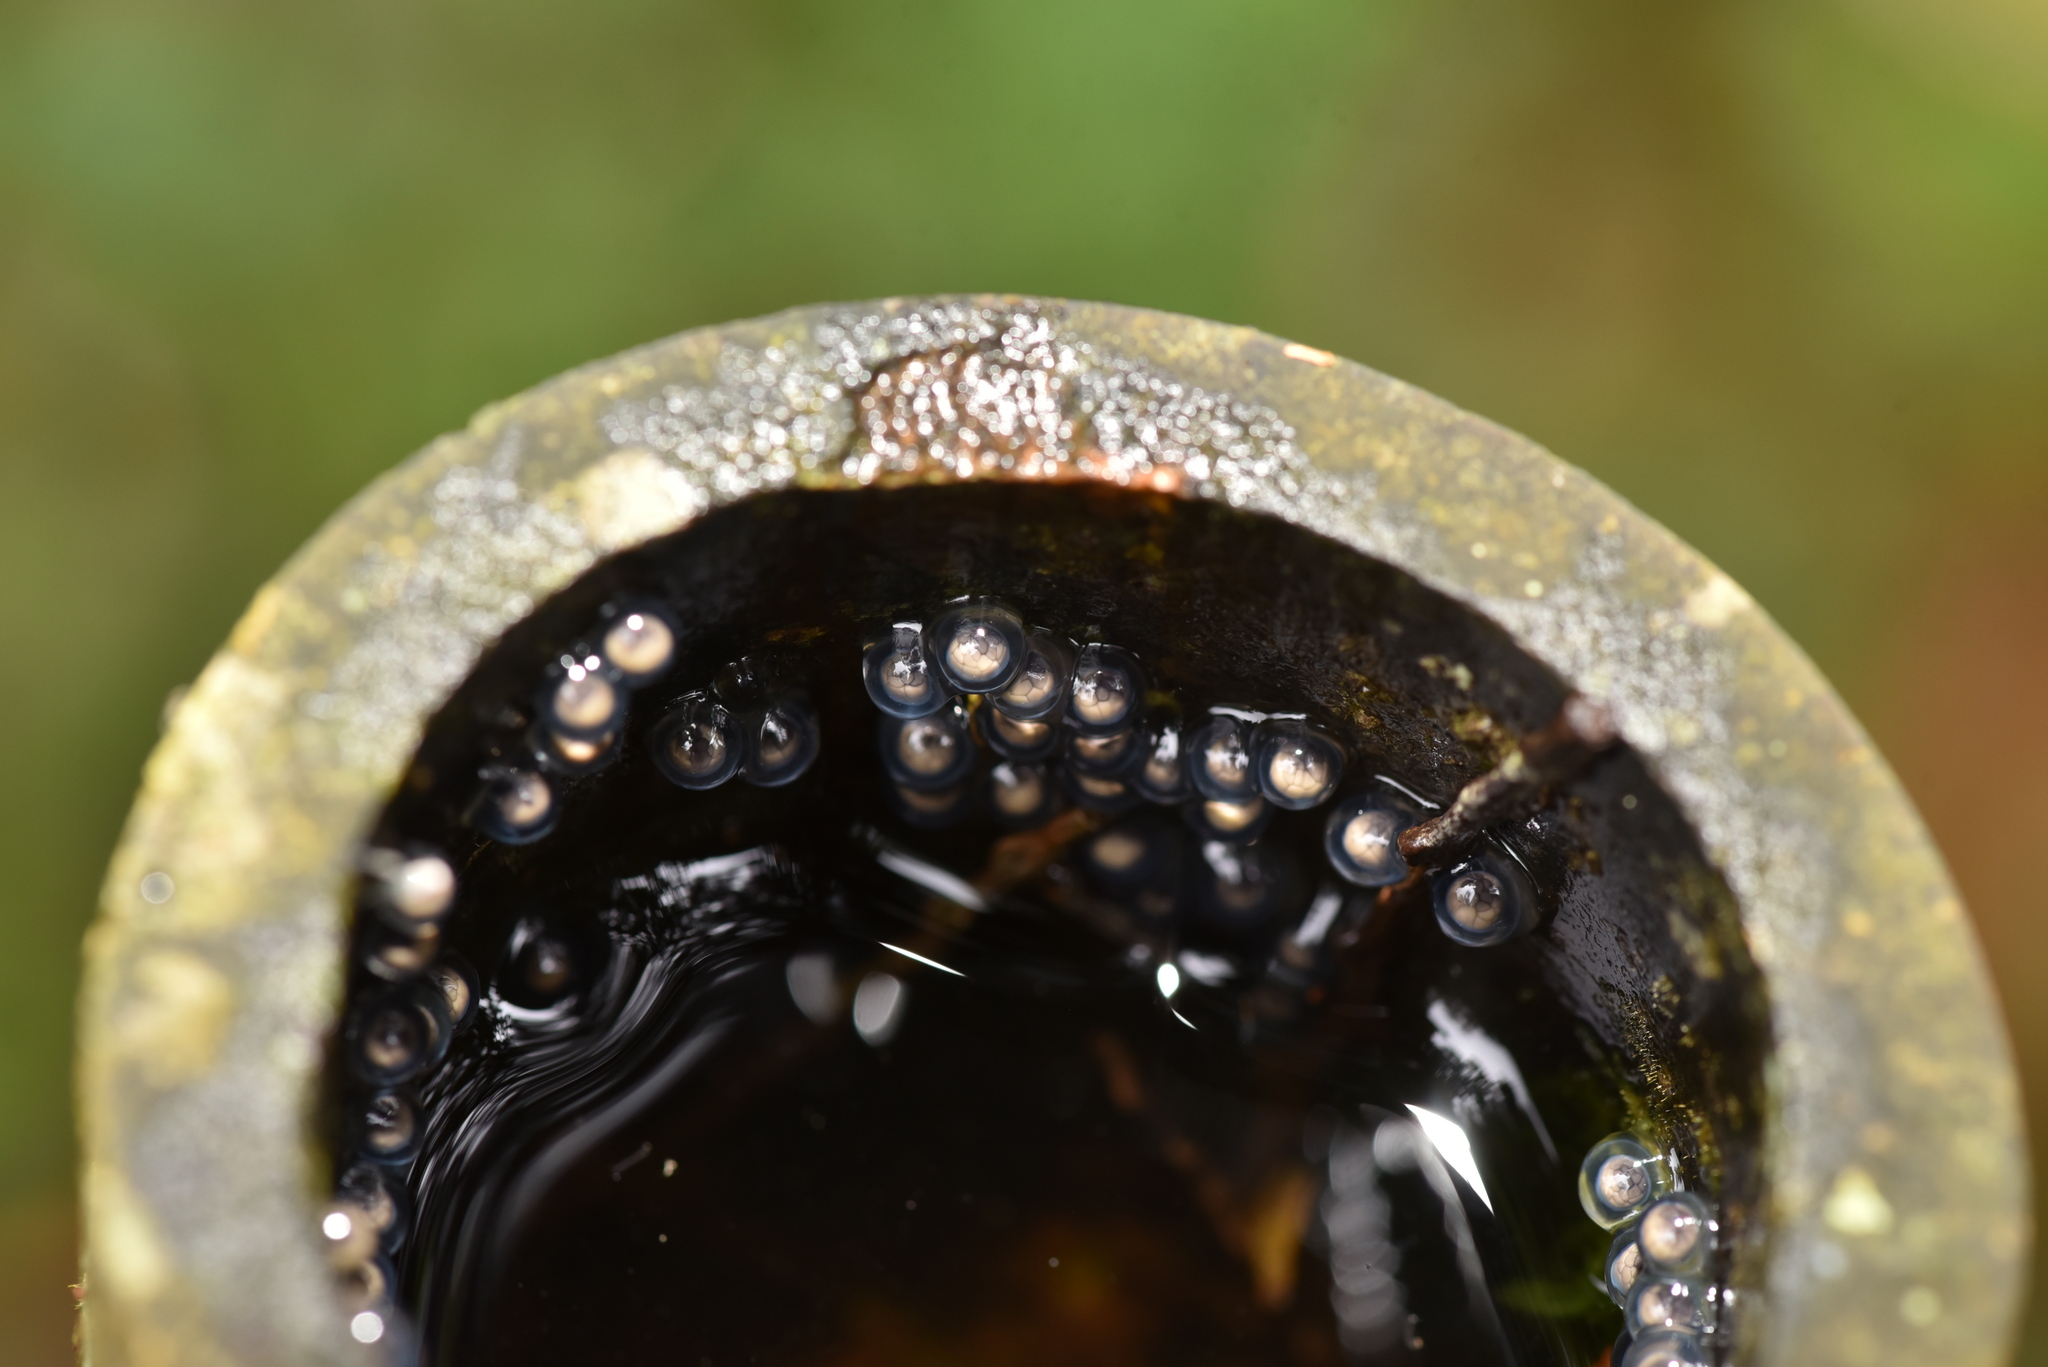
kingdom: Animalia
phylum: Chordata
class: Amphibia
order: Anura
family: Rhacophoridae
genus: Kurixalus
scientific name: Kurixalus eiffingeri
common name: Eiffinger’s treefrog
